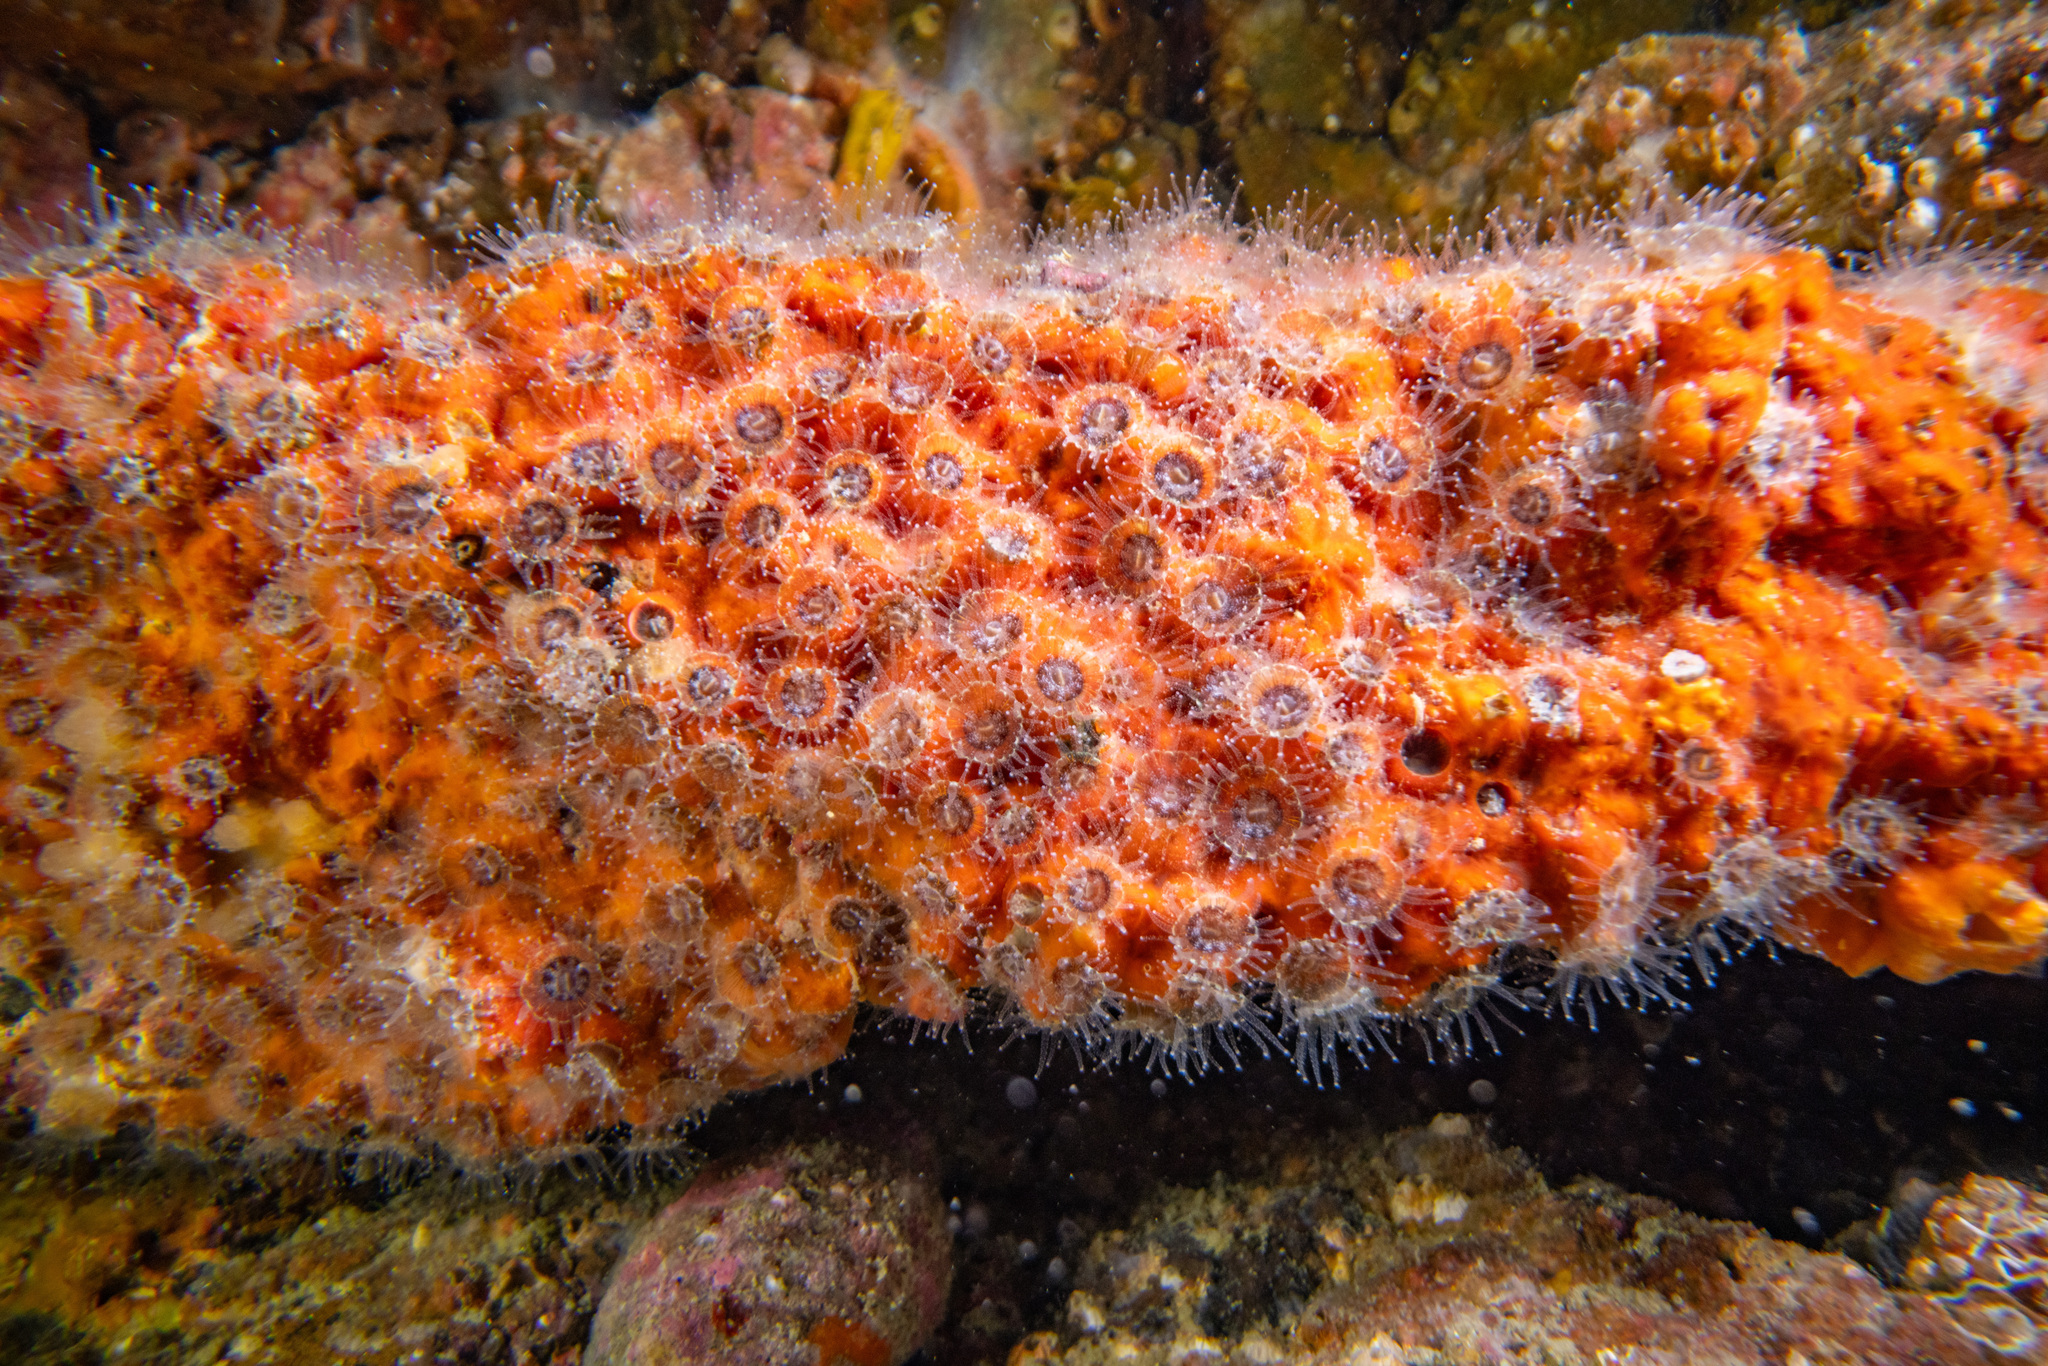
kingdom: Animalia
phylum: Cnidaria
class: Anthozoa
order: Scleractinia
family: Rhizangiidae
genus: Culicia
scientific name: Culicia rubeola
